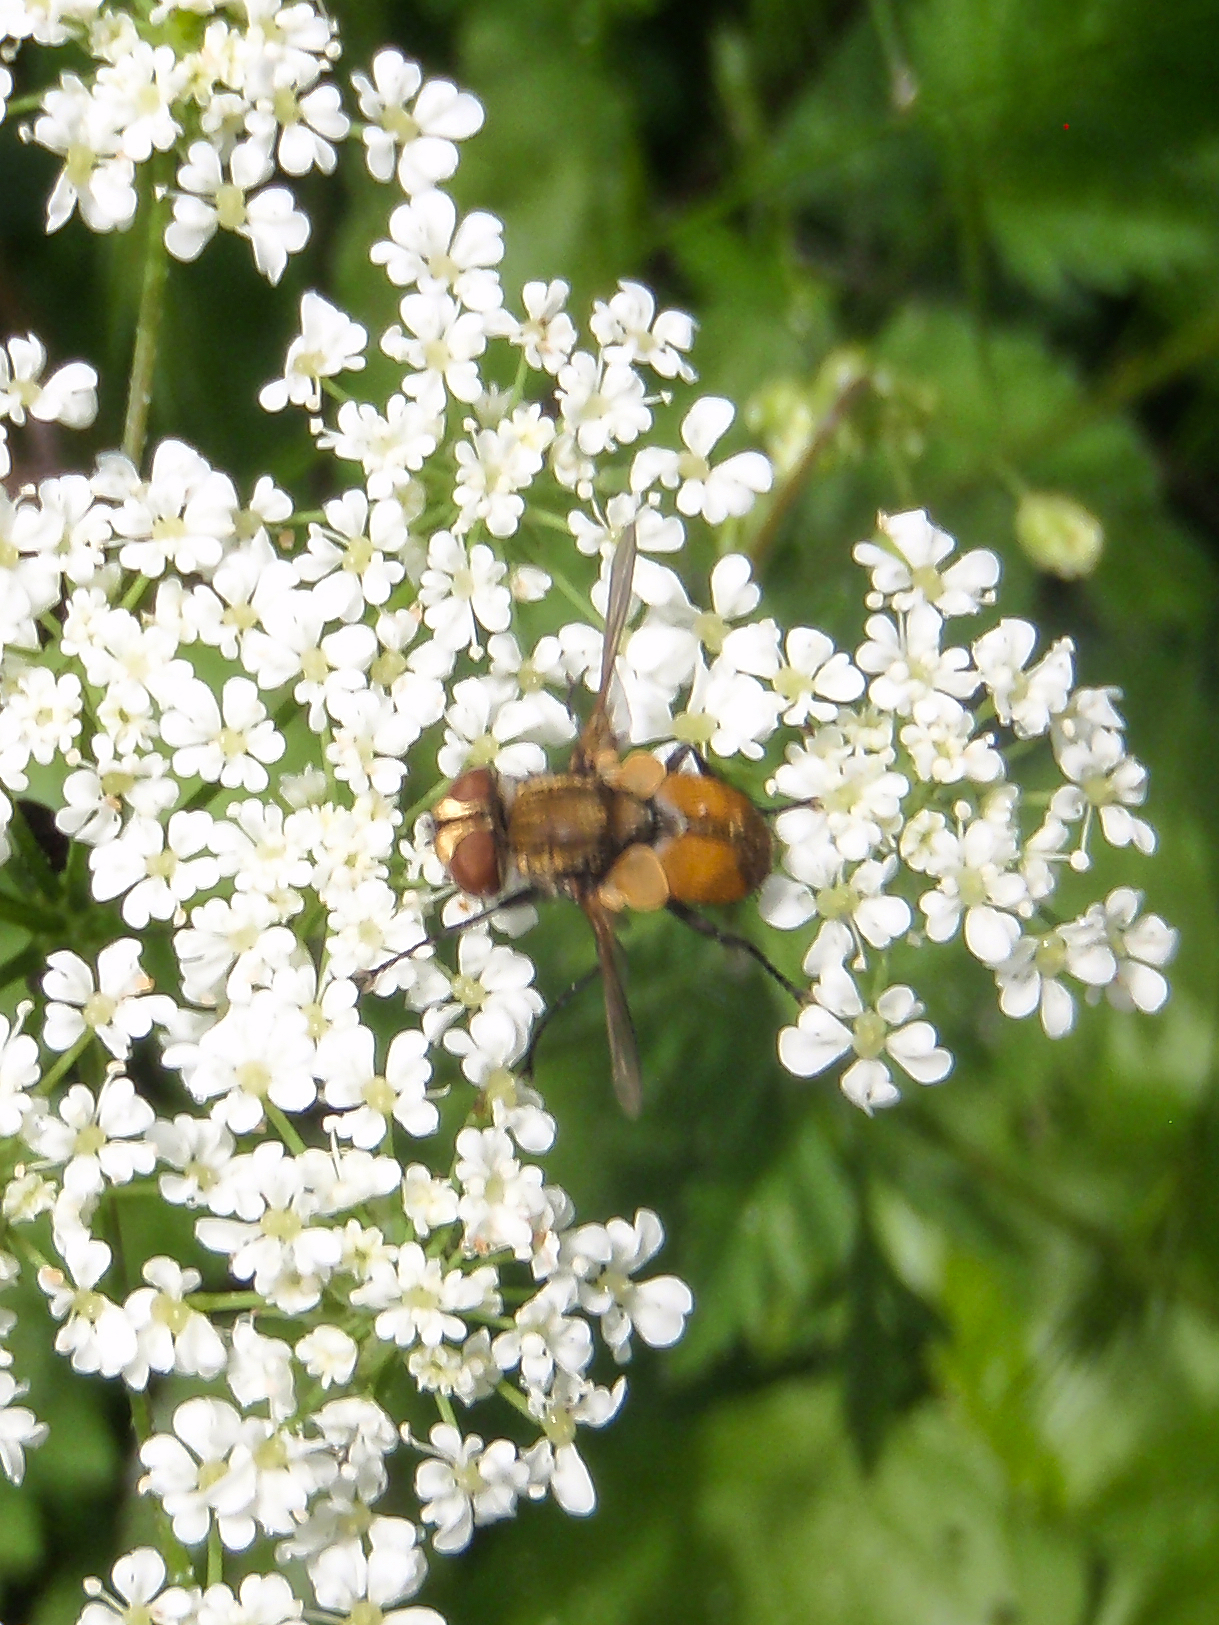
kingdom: Animalia
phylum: Arthropoda
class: Insecta
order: Diptera
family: Tachinidae
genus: Eliozeta
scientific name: Eliozeta
